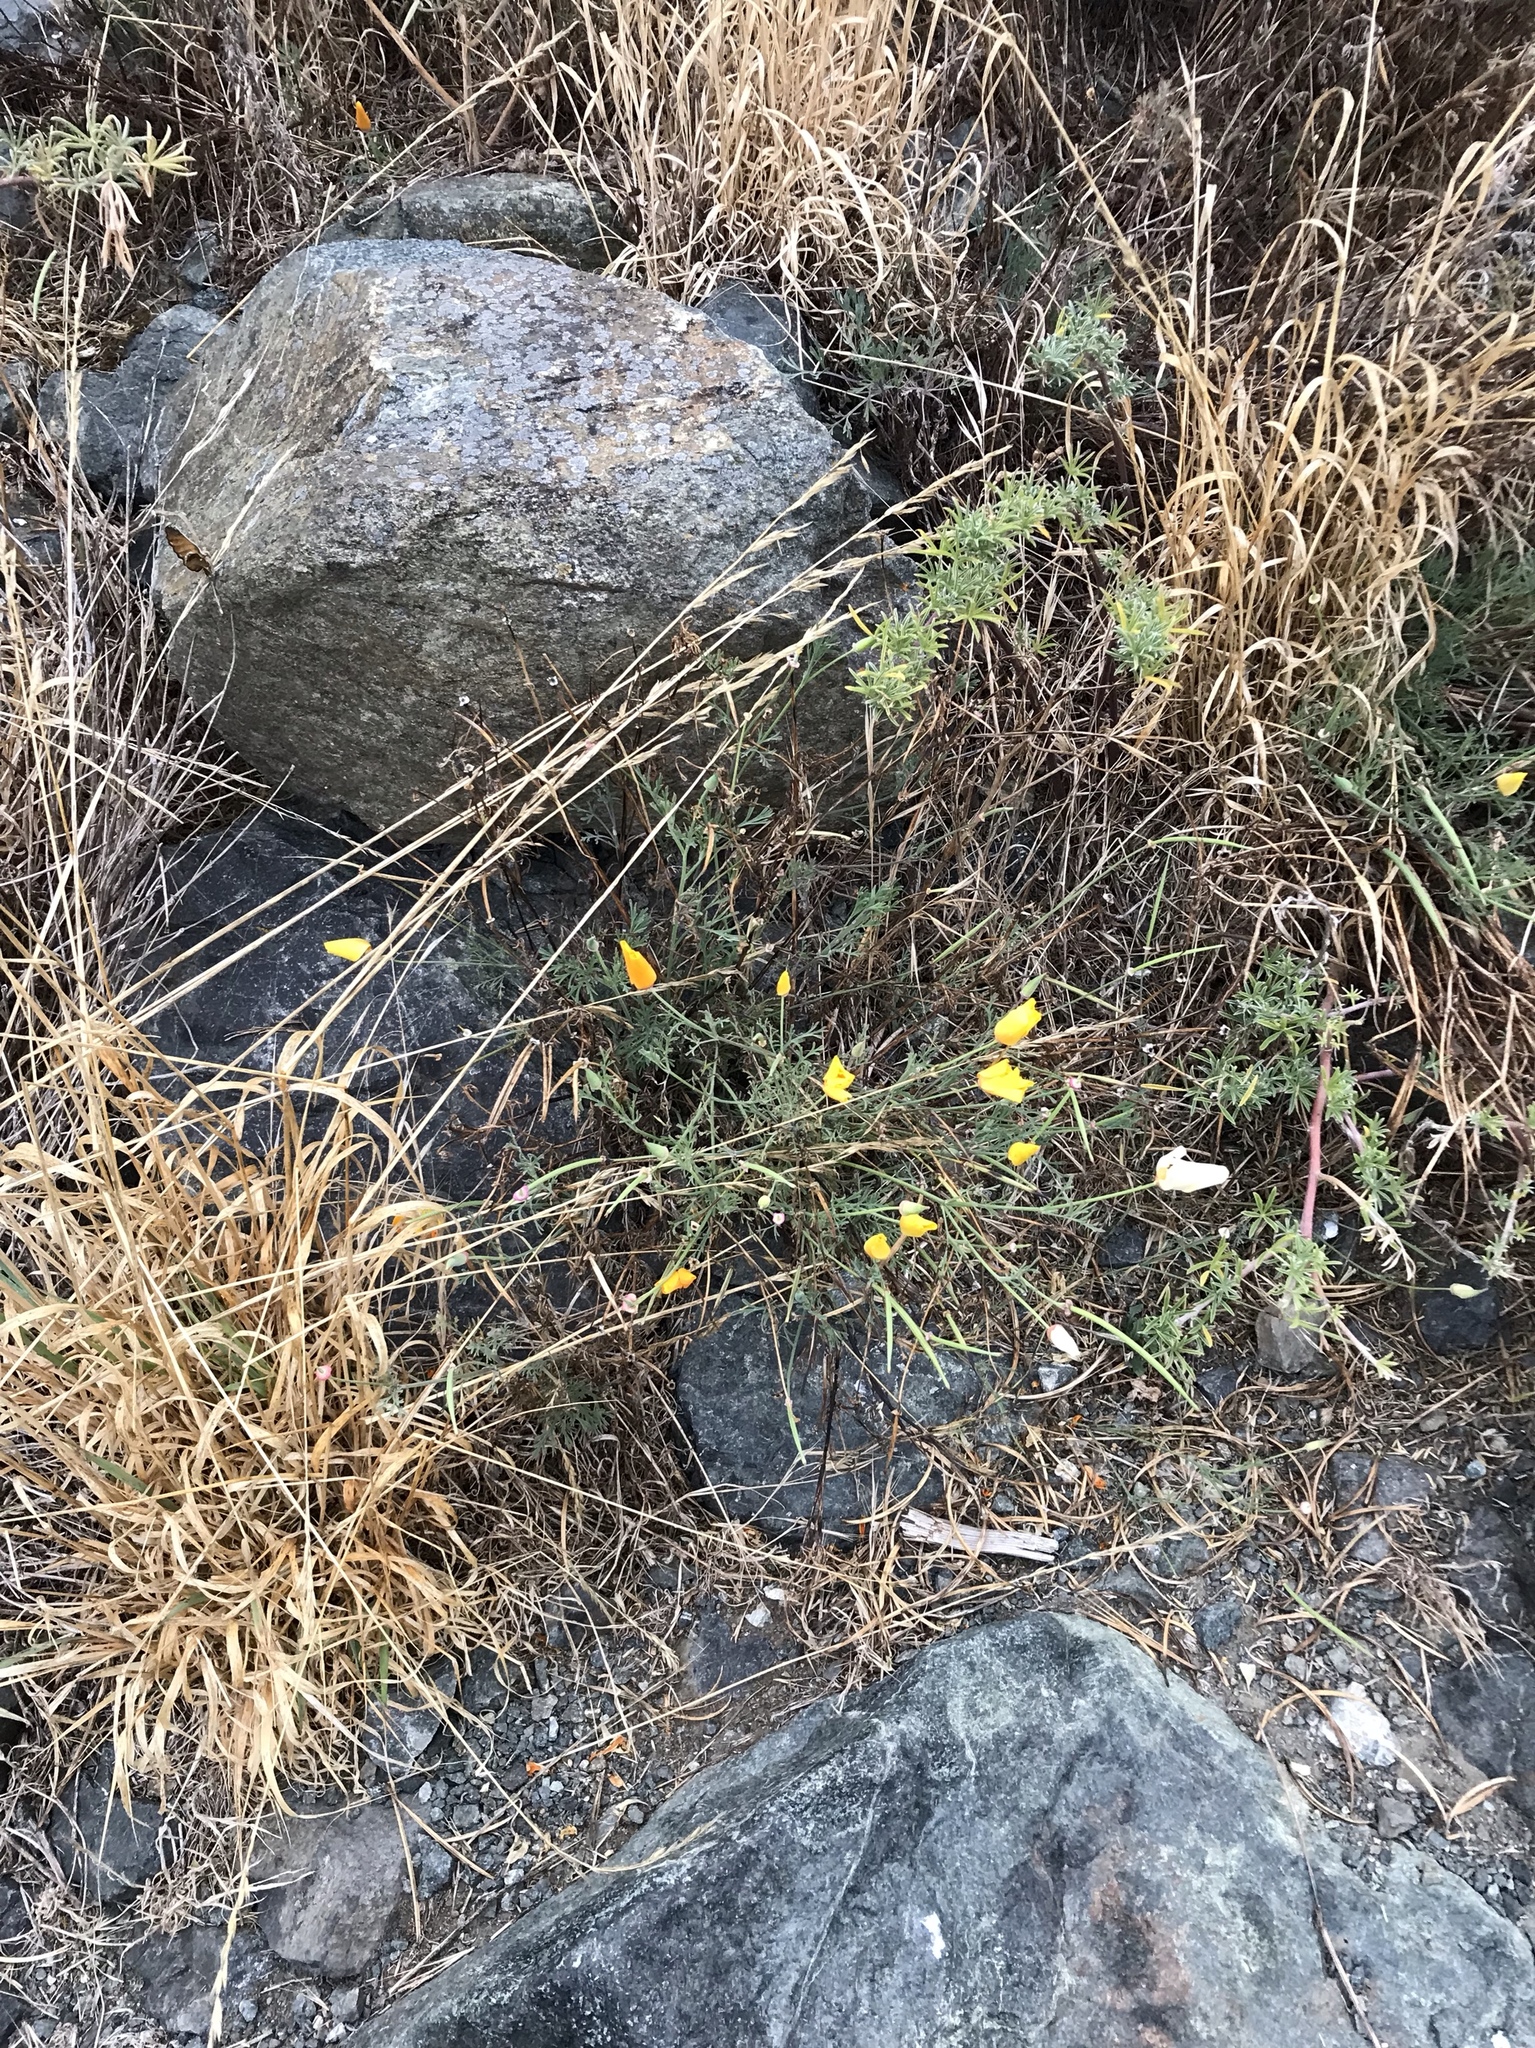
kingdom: Plantae
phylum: Tracheophyta
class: Magnoliopsida
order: Ranunculales
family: Papaveraceae
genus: Eschscholzia
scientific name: Eschscholzia californica
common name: California poppy
